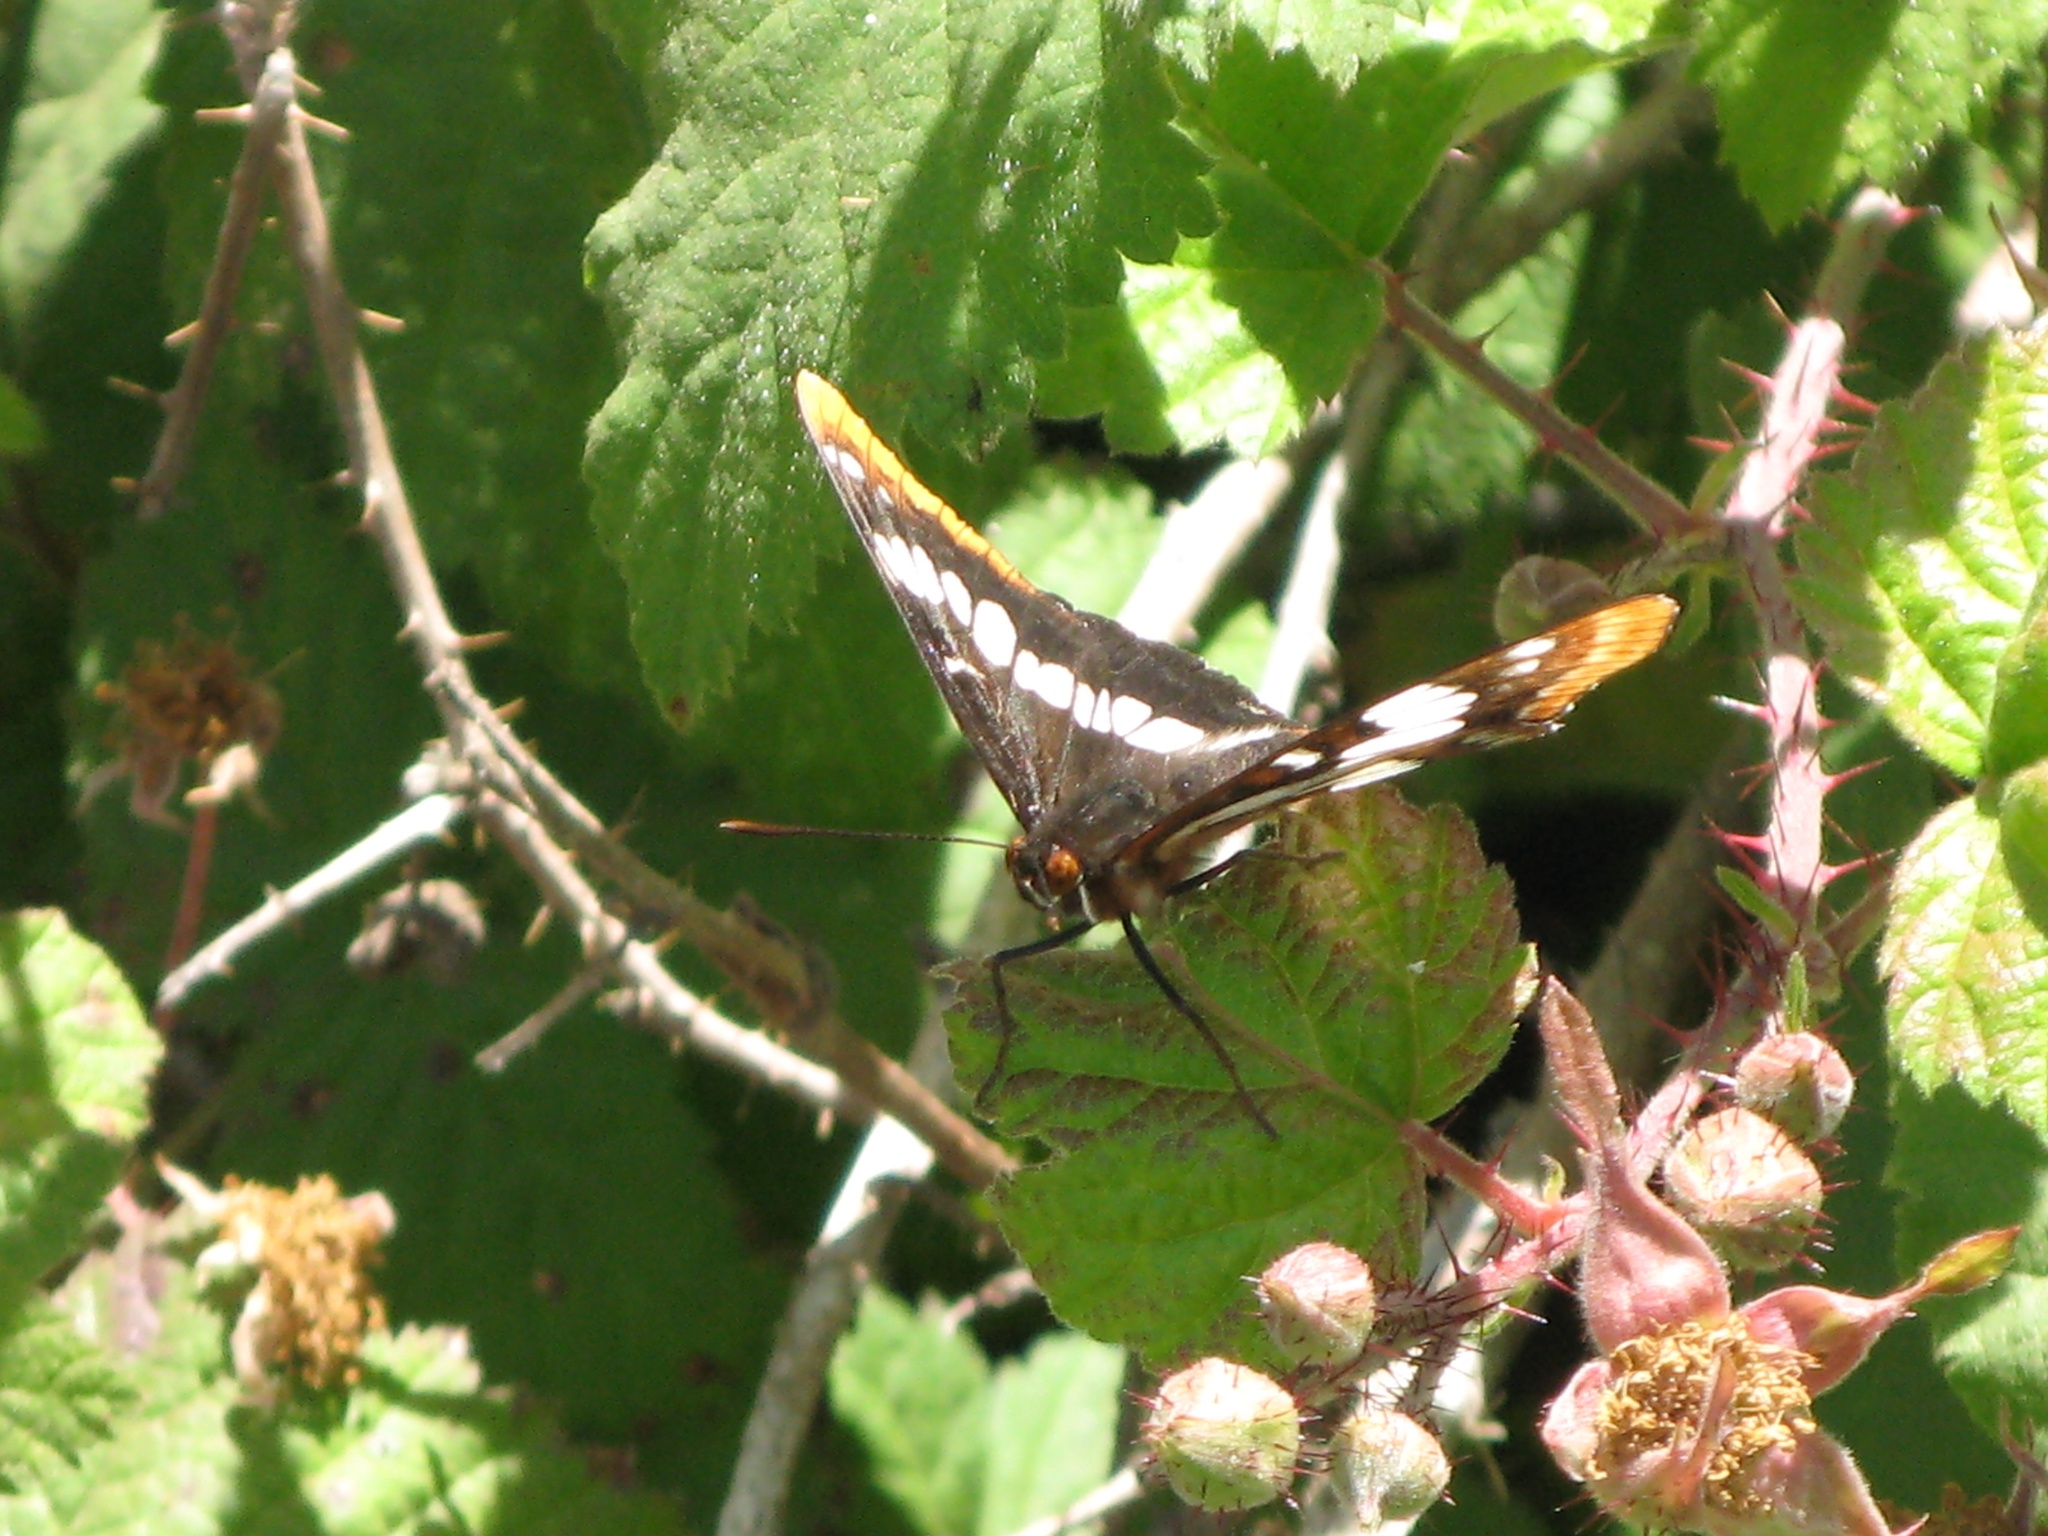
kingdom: Animalia
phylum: Arthropoda
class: Insecta
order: Lepidoptera
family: Nymphalidae
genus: Limenitis
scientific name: Limenitis lorquini
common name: Lorquin's admiral
